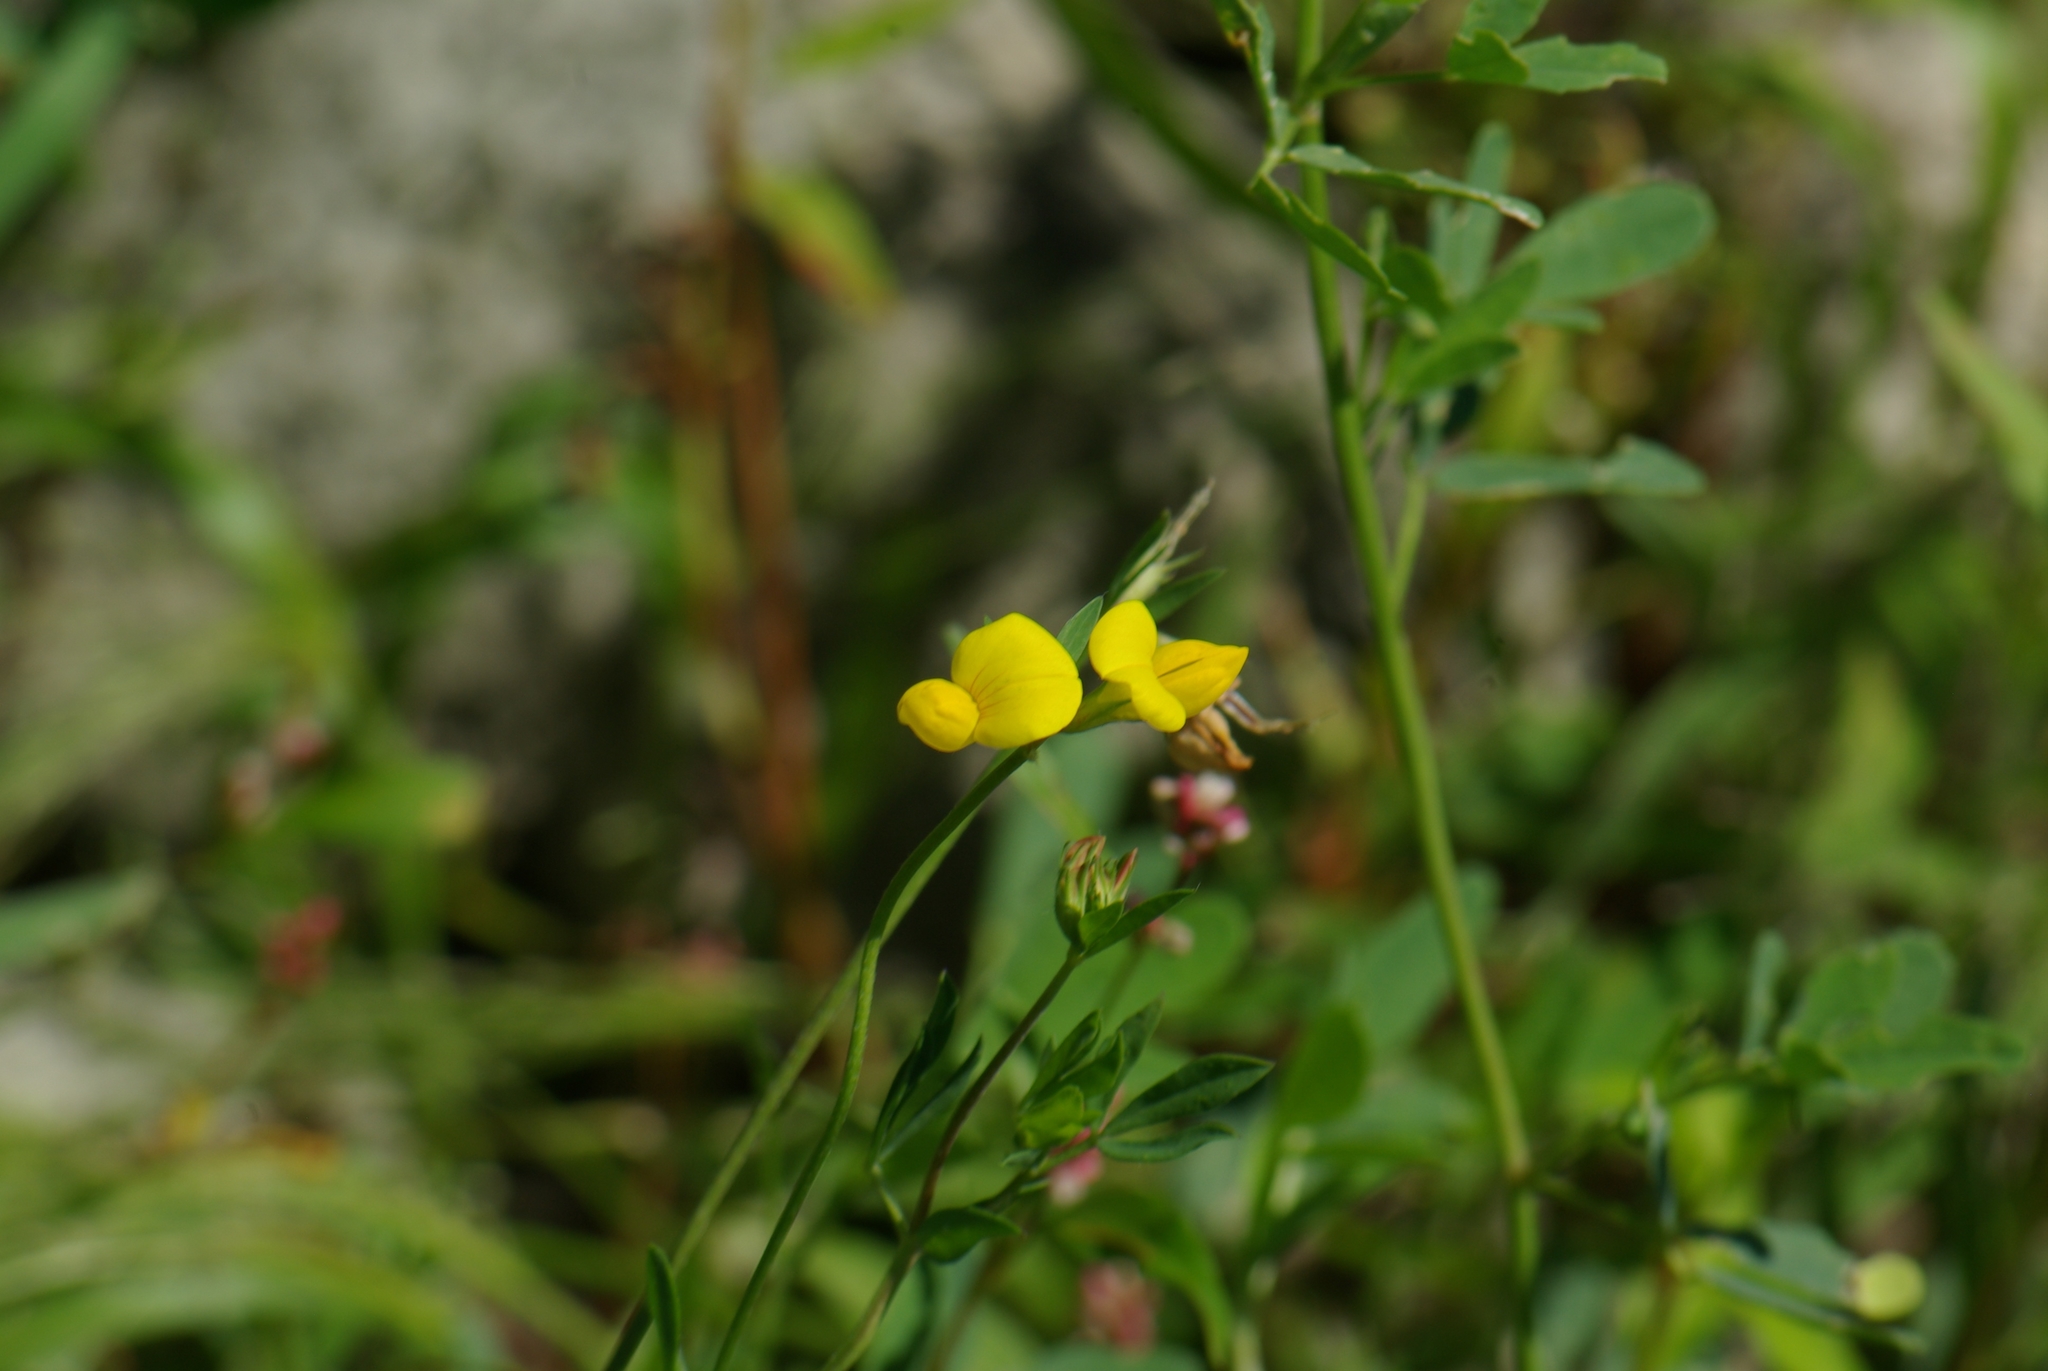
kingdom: Plantae
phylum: Tracheophyta
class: Magnoliopsida
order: Fabales
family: Fabaceae
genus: Lotus
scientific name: Lotus corniculatus
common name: Common bird's-foot-trefoil
